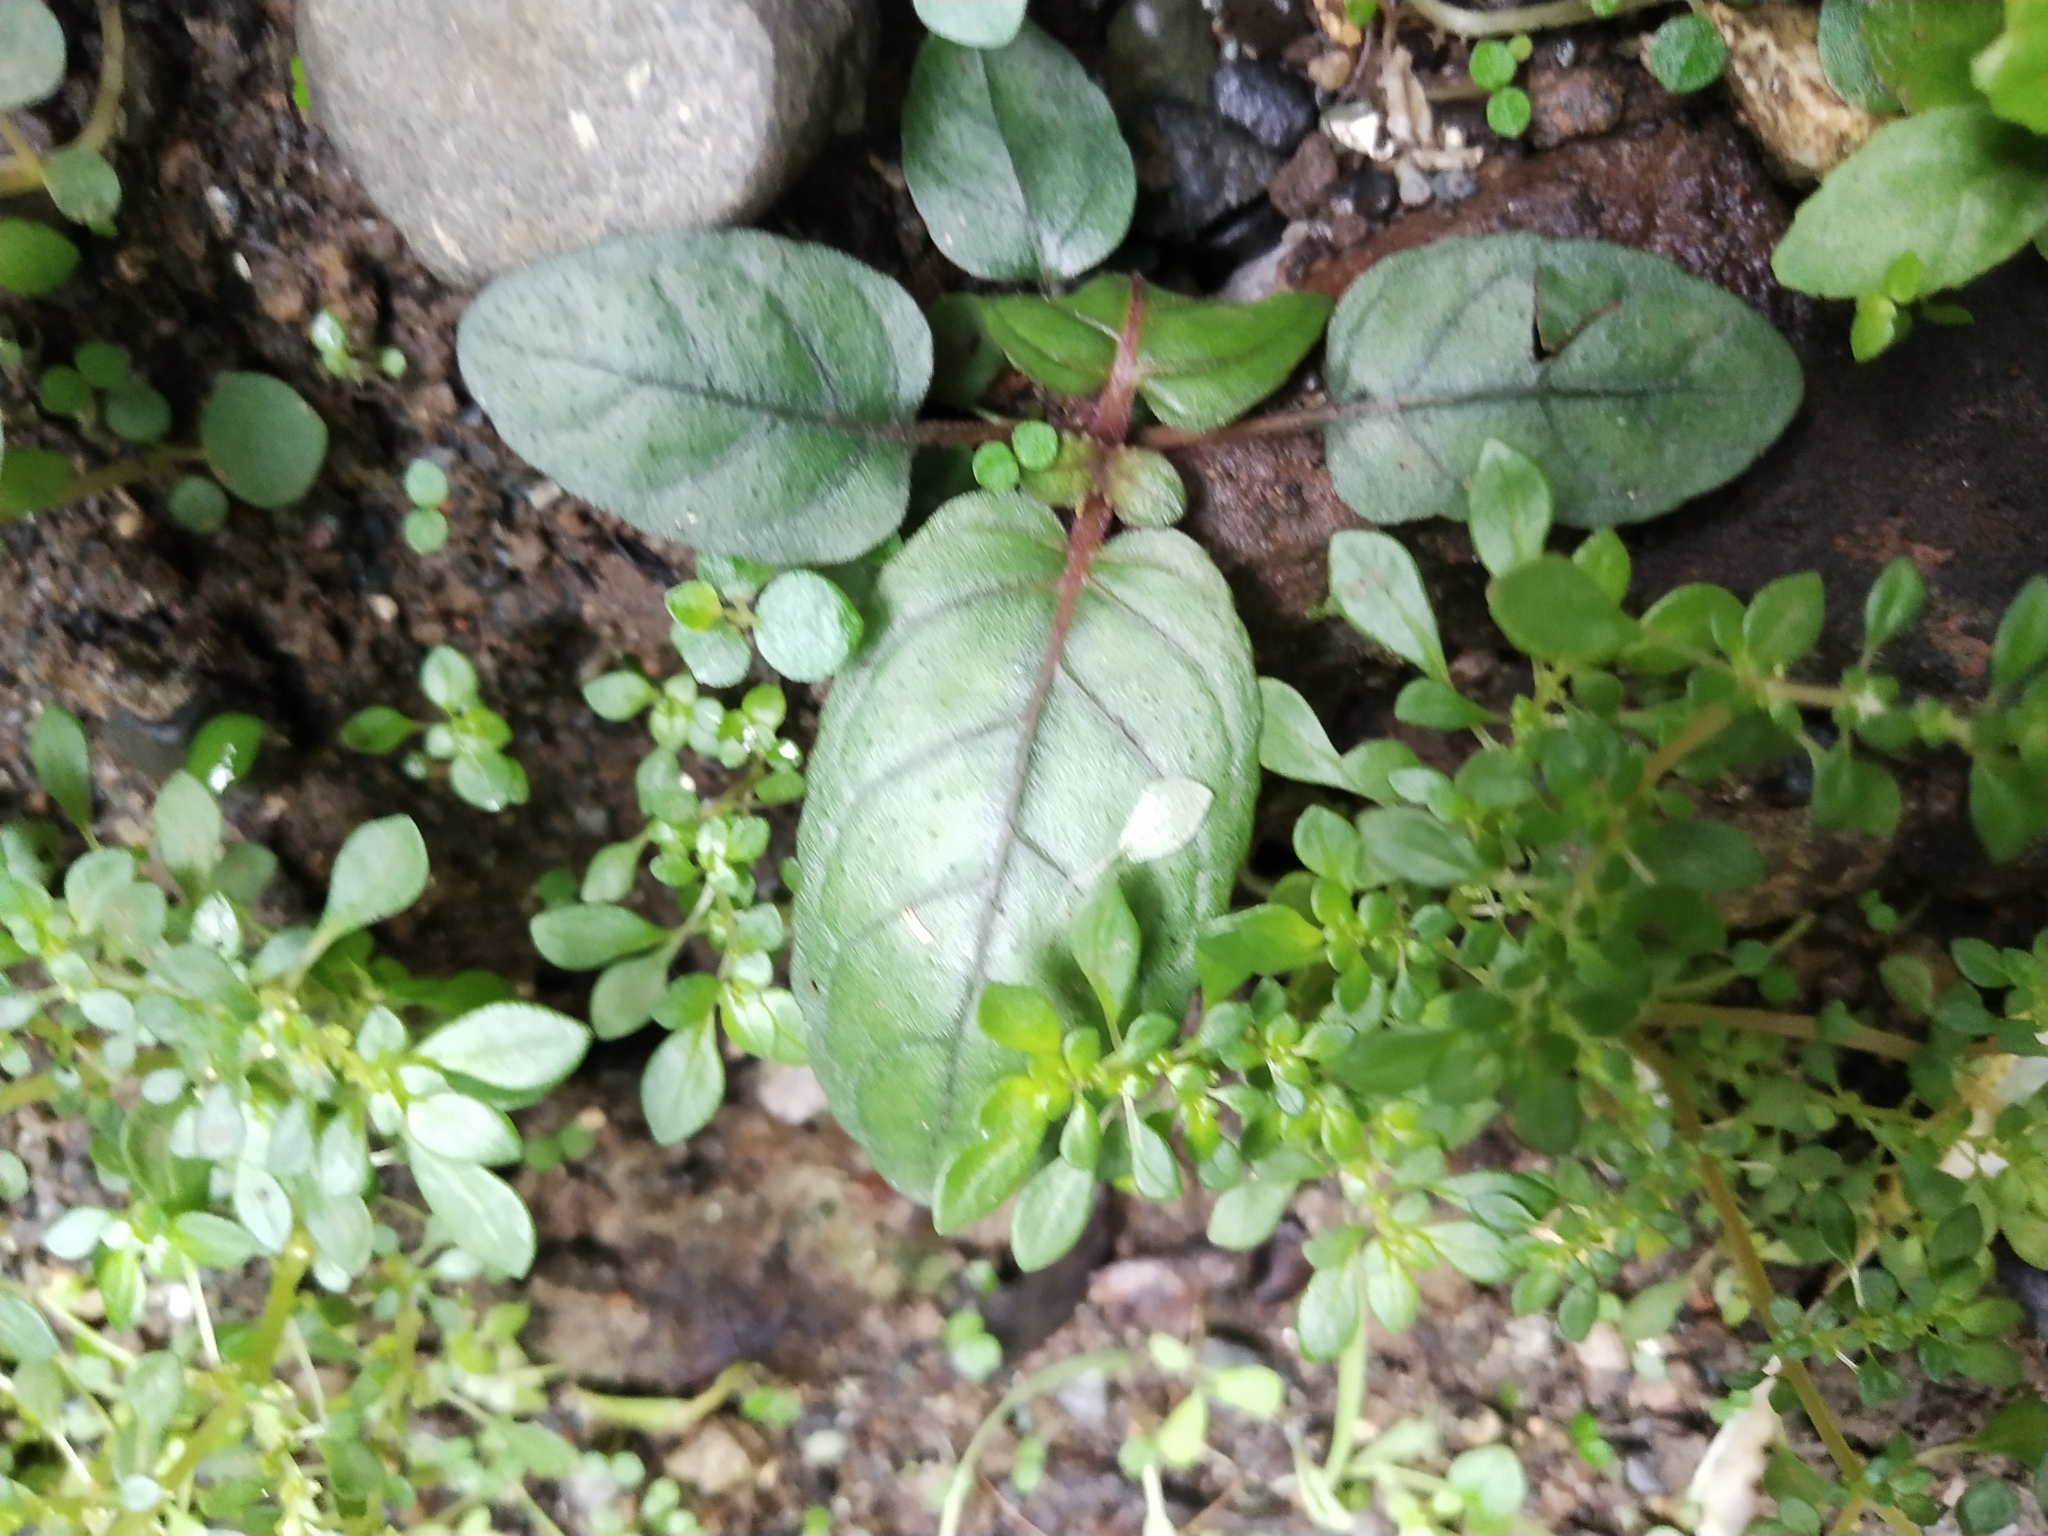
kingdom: Plantae
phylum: Tracheophyta
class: Magnoliopsida
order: Lamiales
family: Acanthaceae
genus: Strobilanthes
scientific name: Strobilanthes reptans
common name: Acanthaceae
